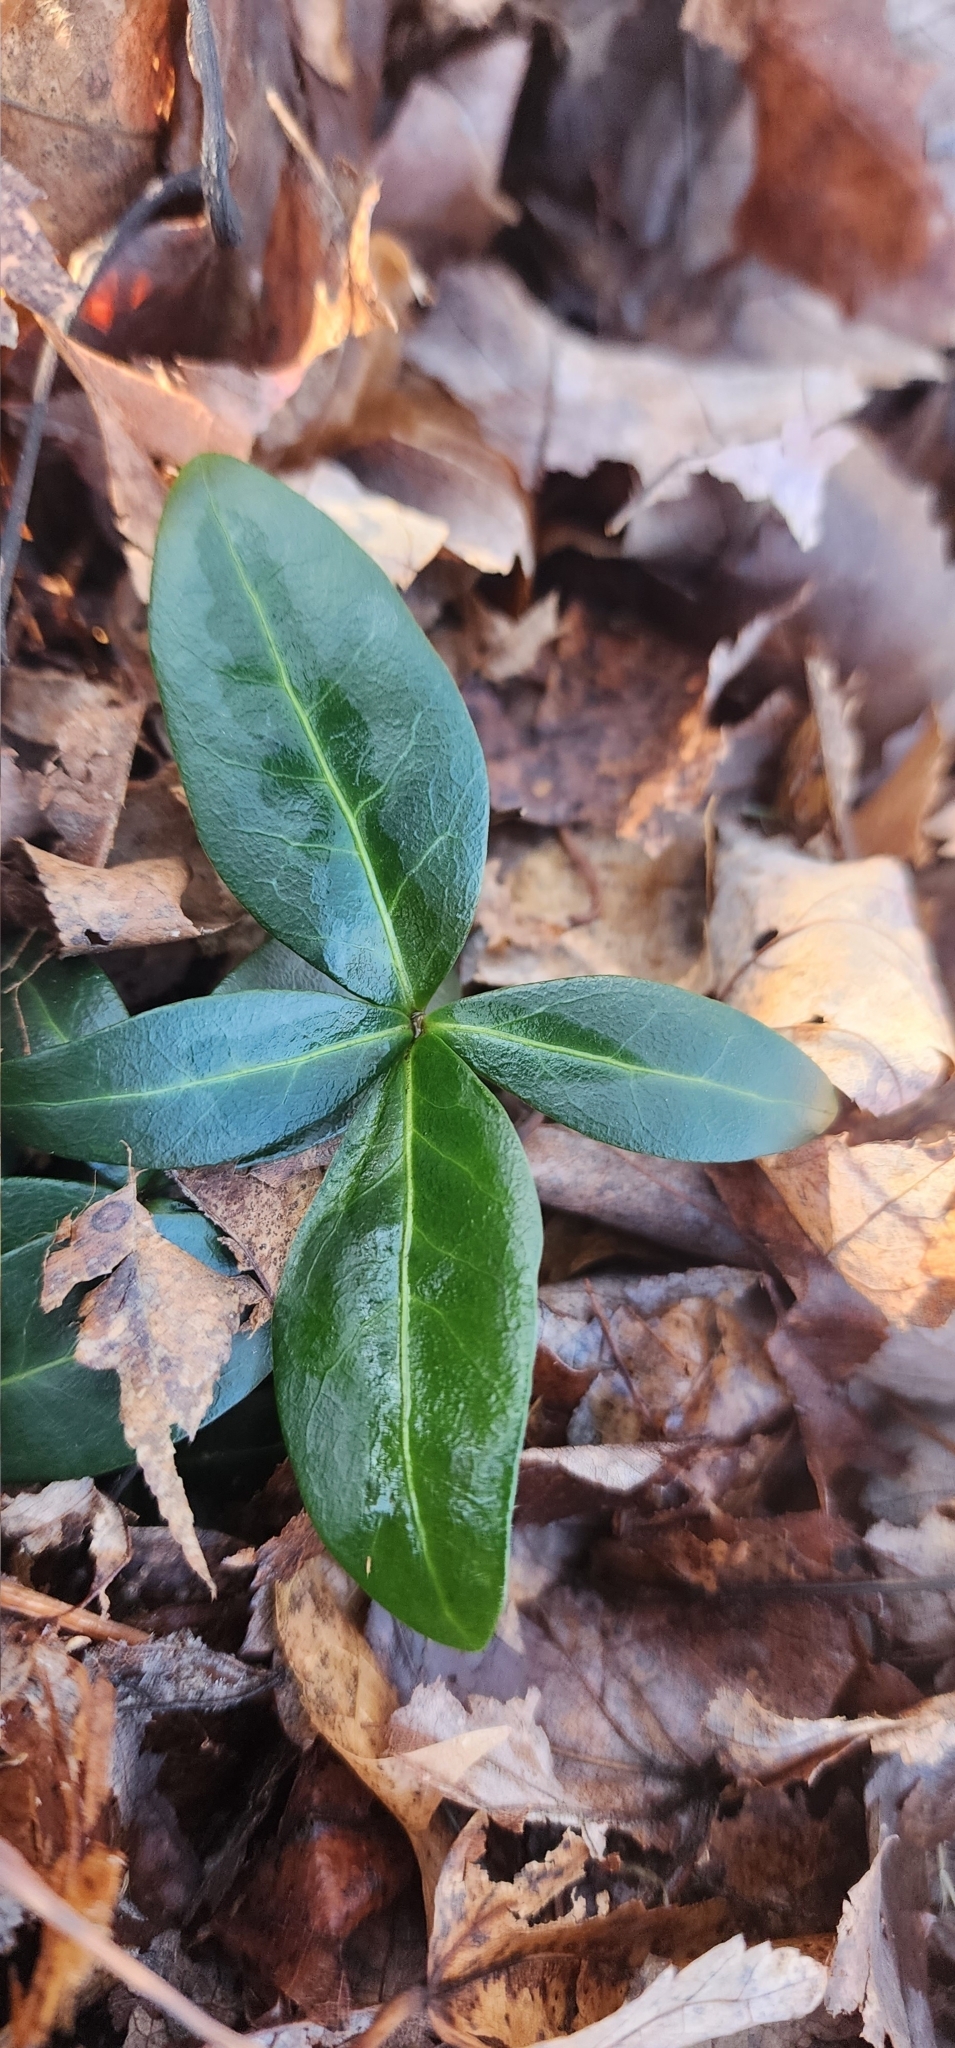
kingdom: Plantae
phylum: Tracheophyta
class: Magnoliopsida
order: Gentianales
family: Apocynaceae
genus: Vinca
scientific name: Vinca minor
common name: Lesser periwinkle
